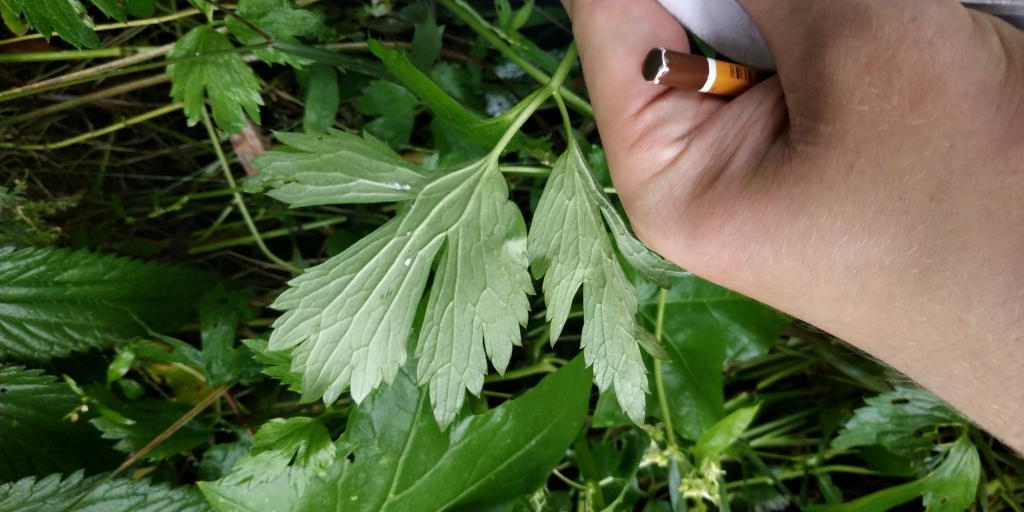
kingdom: Plantae
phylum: Tracheophyta
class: Magnoliopsida
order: Ranunculales
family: Ranunculaceae
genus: Ranunculus
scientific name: Ranunculus repens
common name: Creeping buttercup
